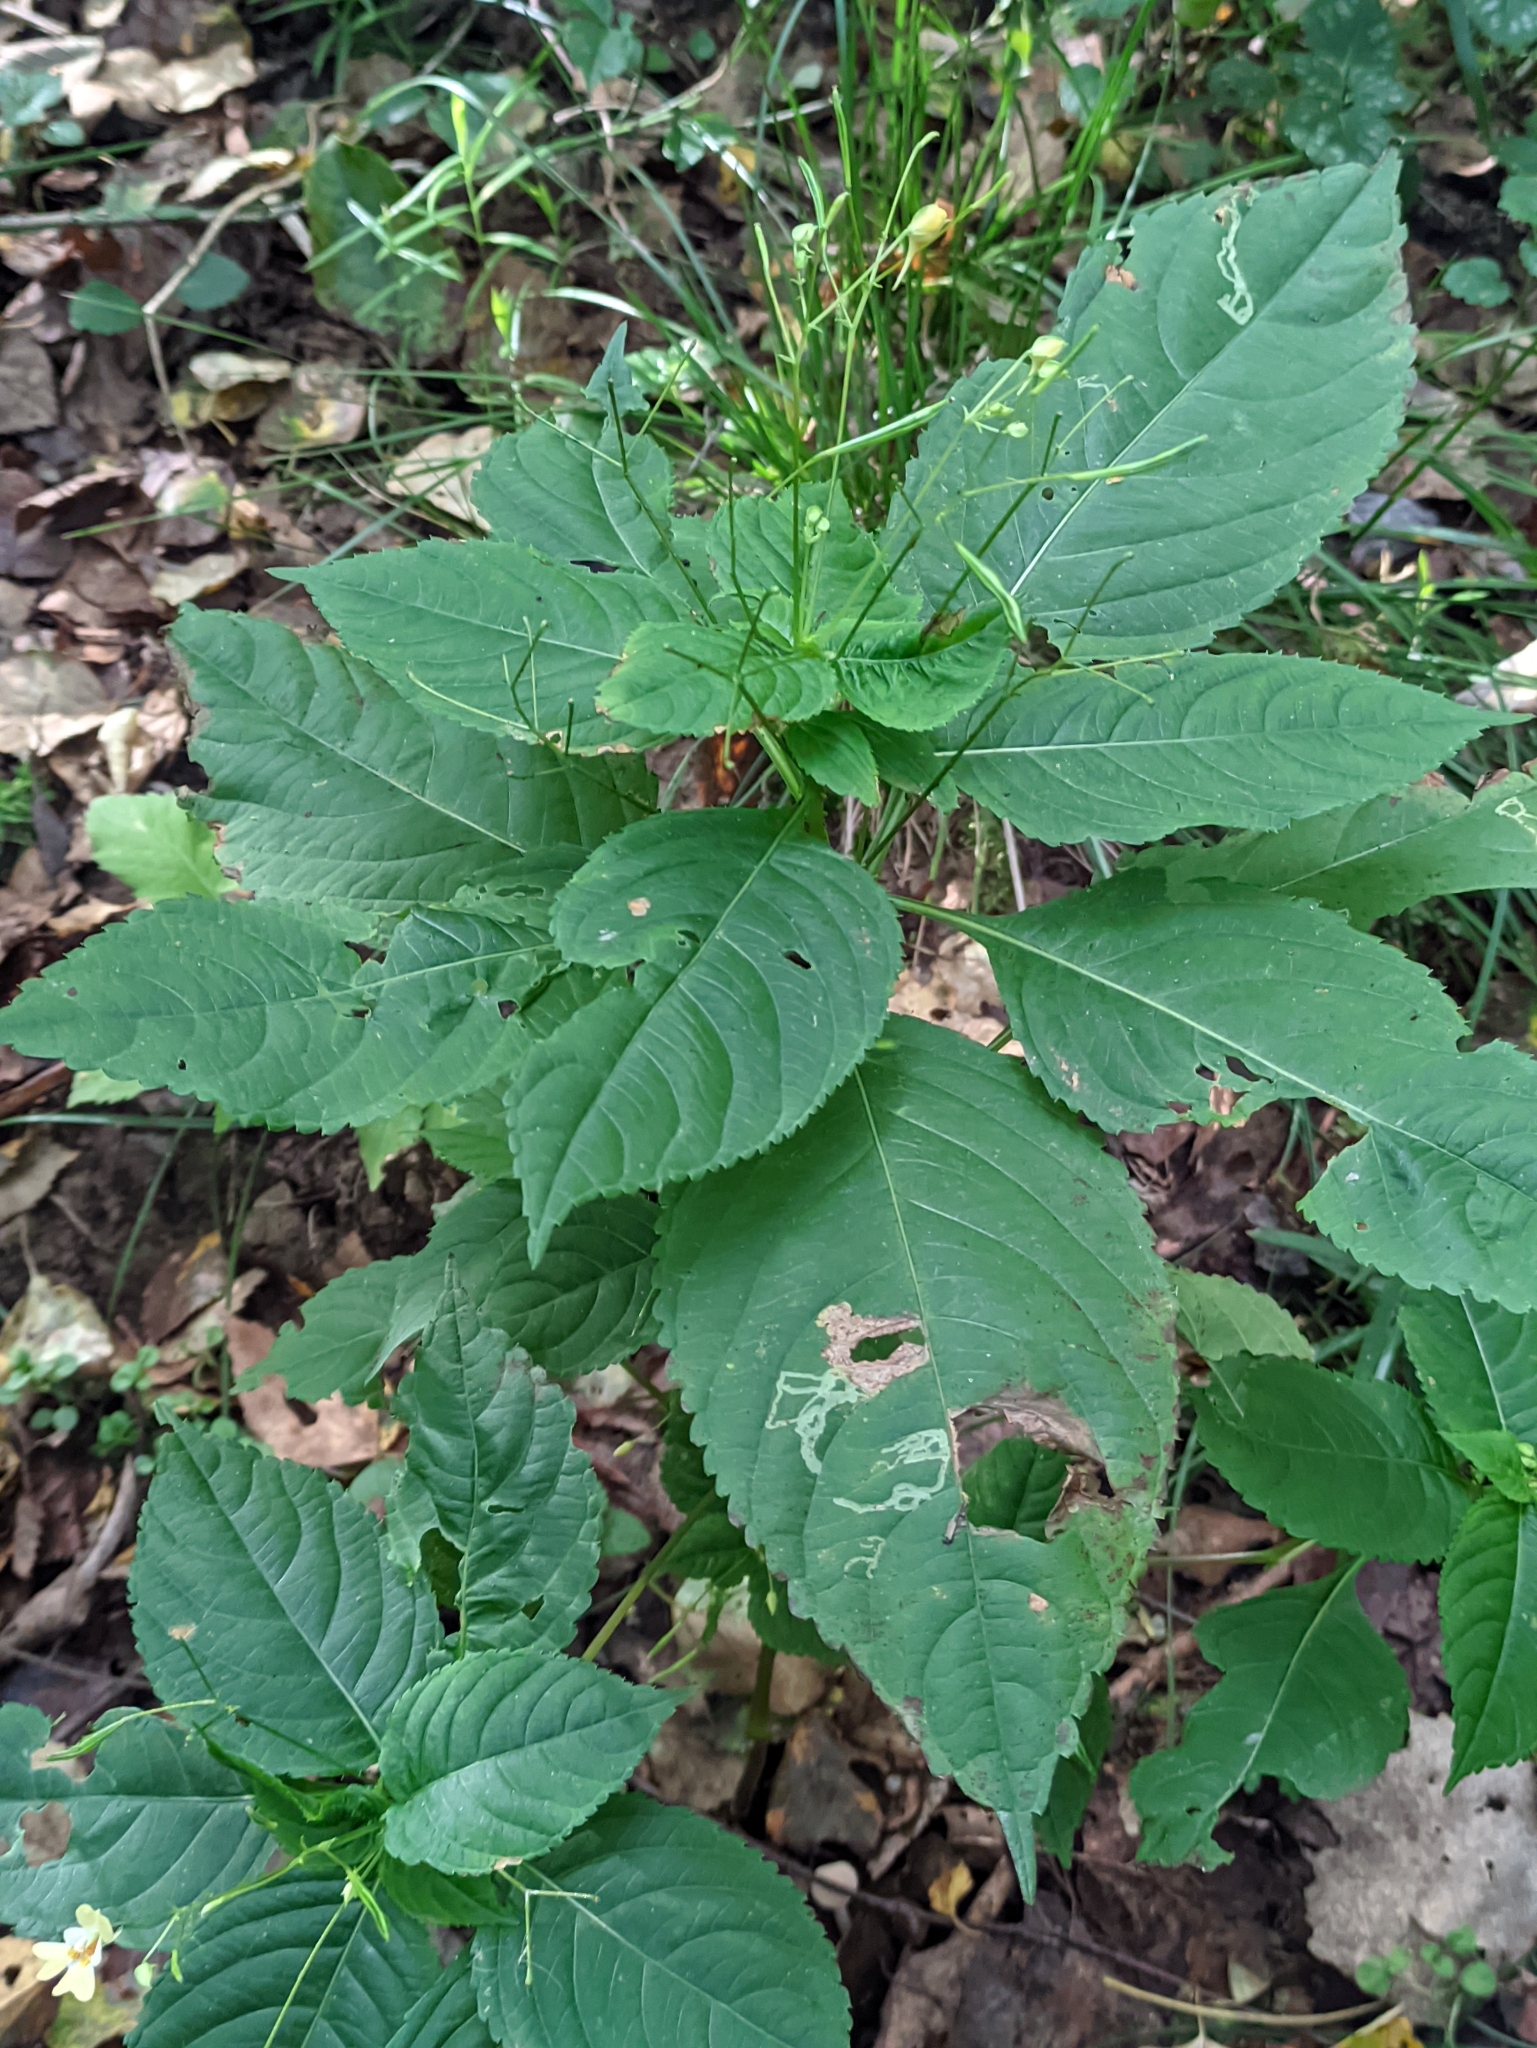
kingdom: Plantae
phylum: Tracheophyta
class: Magnoliopsida
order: Ericales
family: Balsaminaceae
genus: Impatiens
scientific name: Impatiens parviflora
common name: Small balsam
